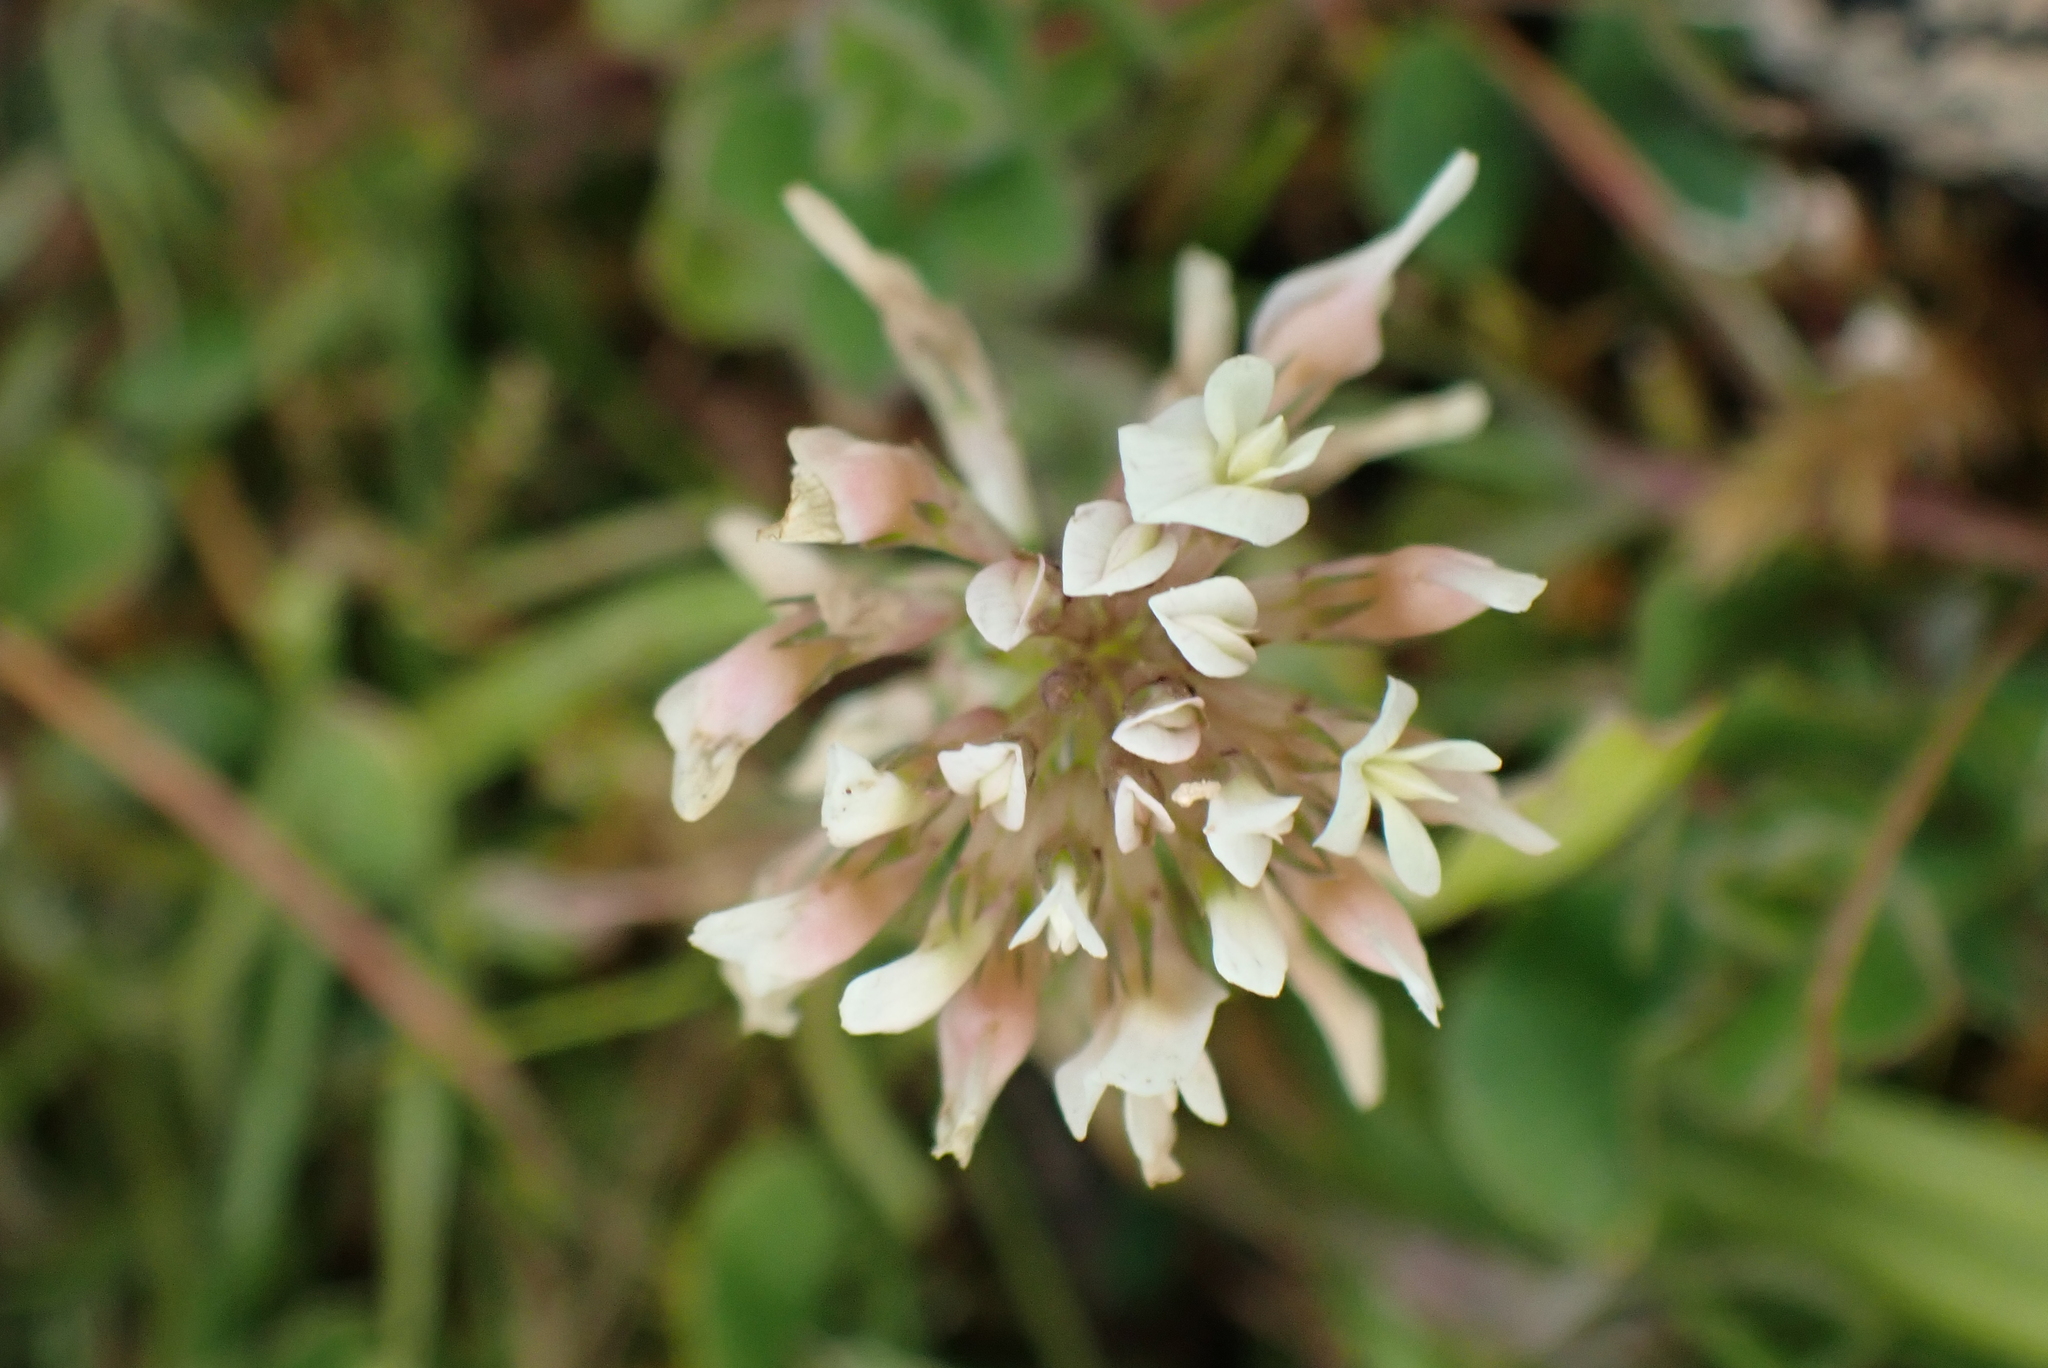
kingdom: Plantae
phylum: Tracheophyta
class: Magnoliopsida
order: Fabales
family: Fabaceae
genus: Trifolium
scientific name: Trifolium repens
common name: White clover
